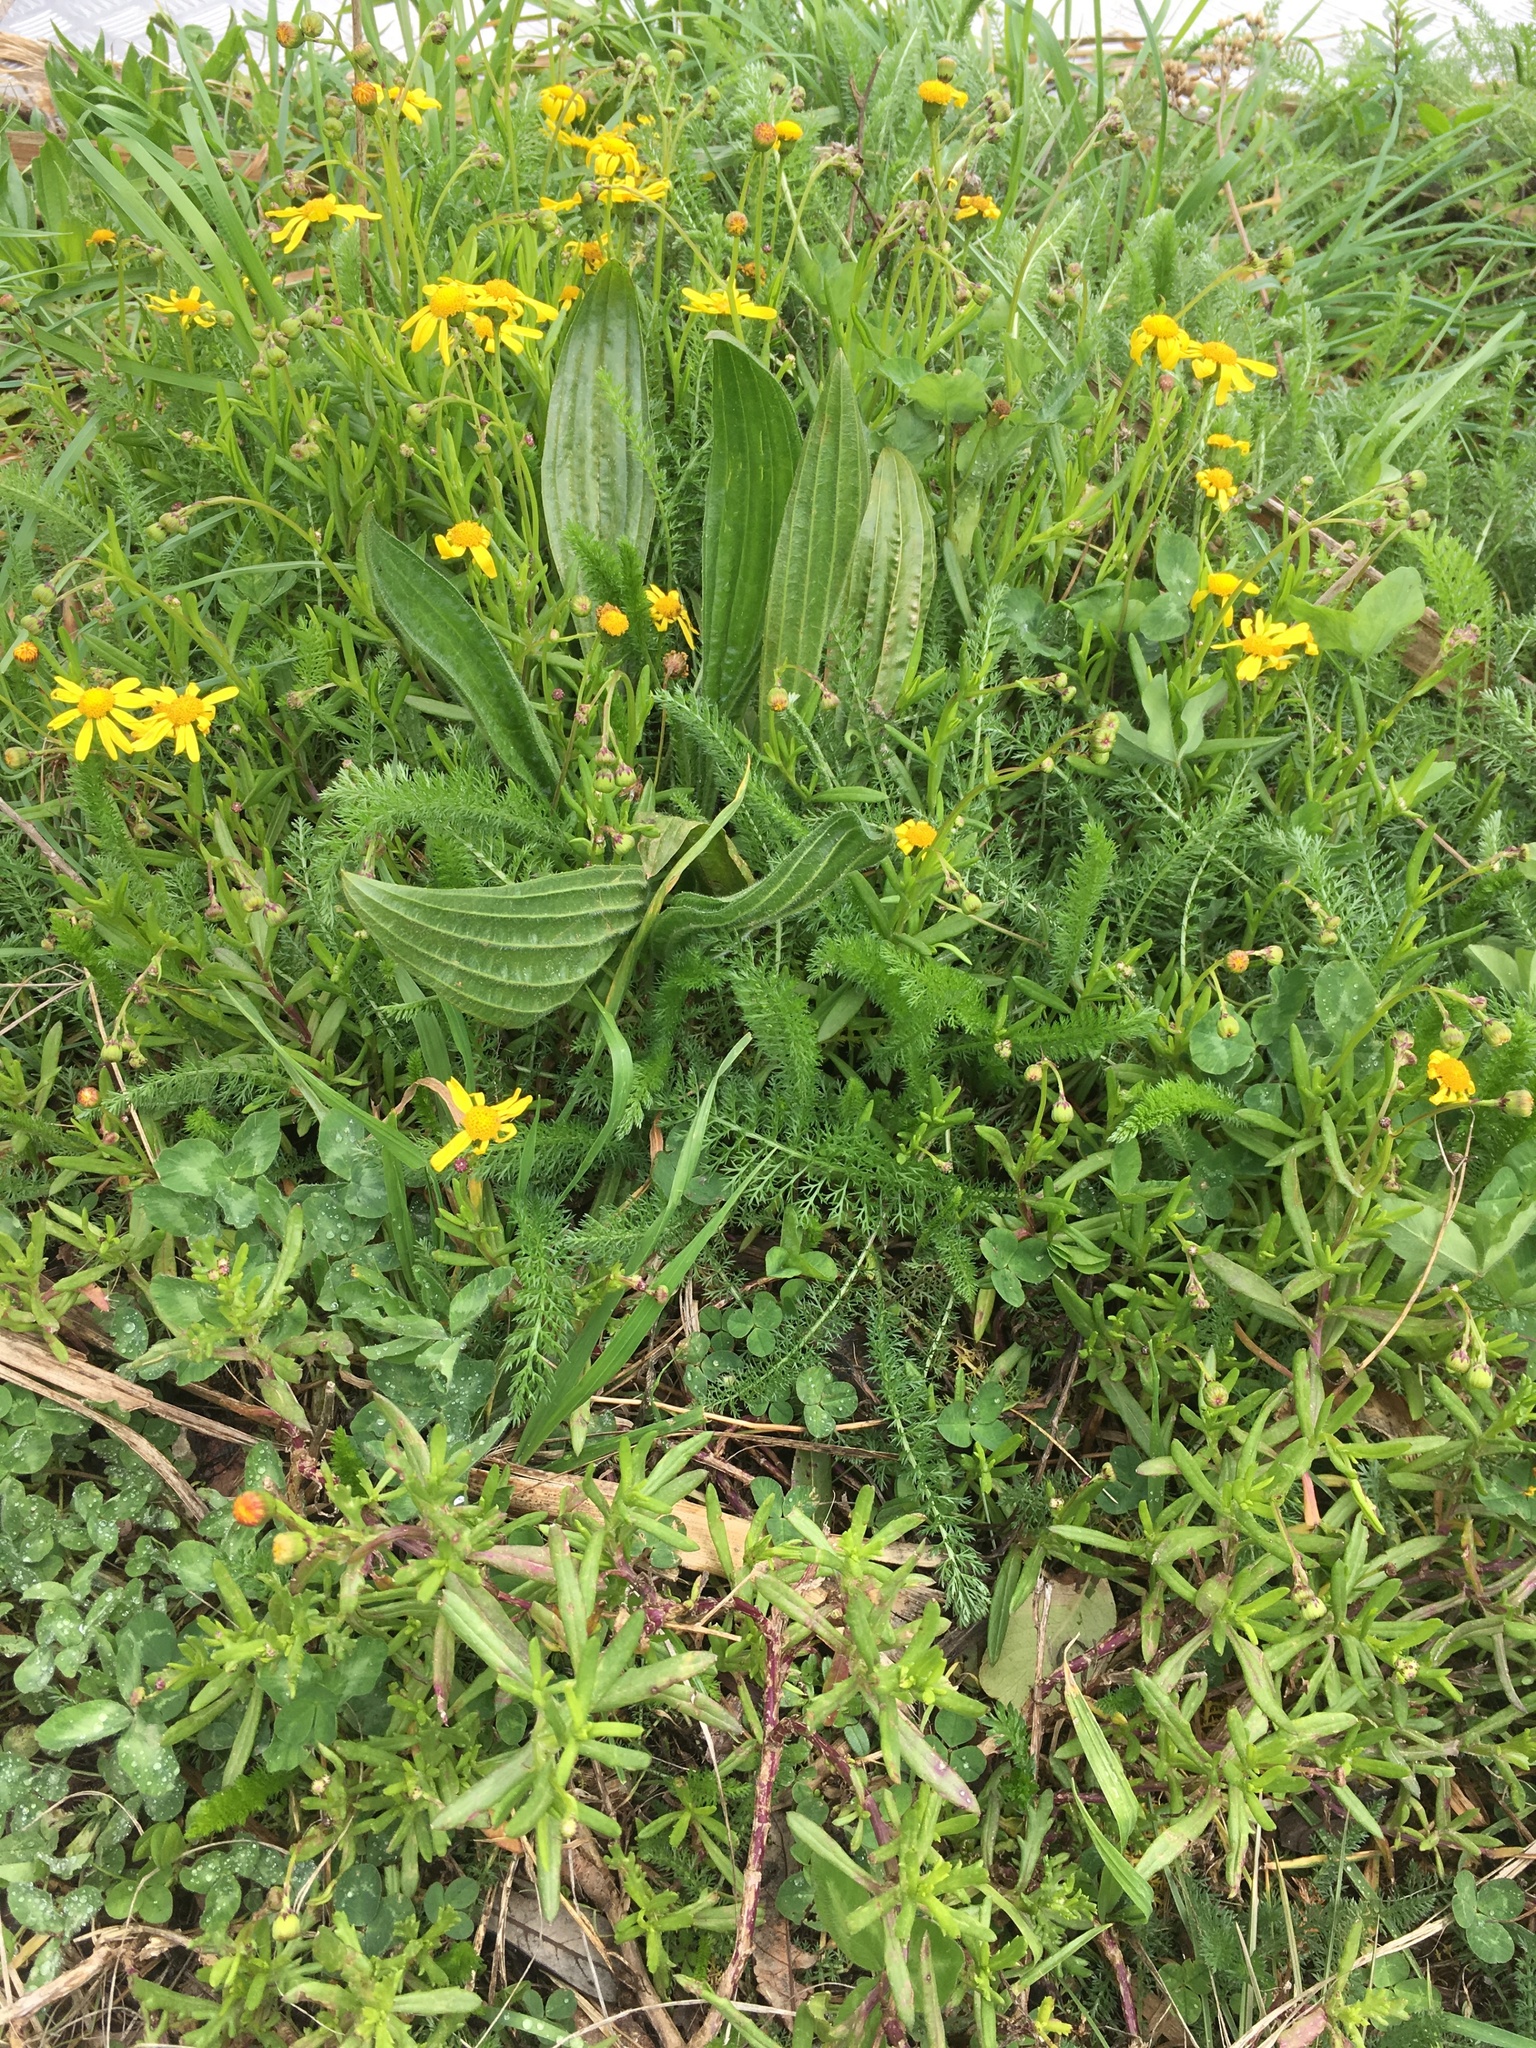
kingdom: Plantae
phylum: Tracheophyta
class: Magnoliopsida
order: Asterales
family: Asteraceae
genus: Senecio
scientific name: Senecio skirrhodon
